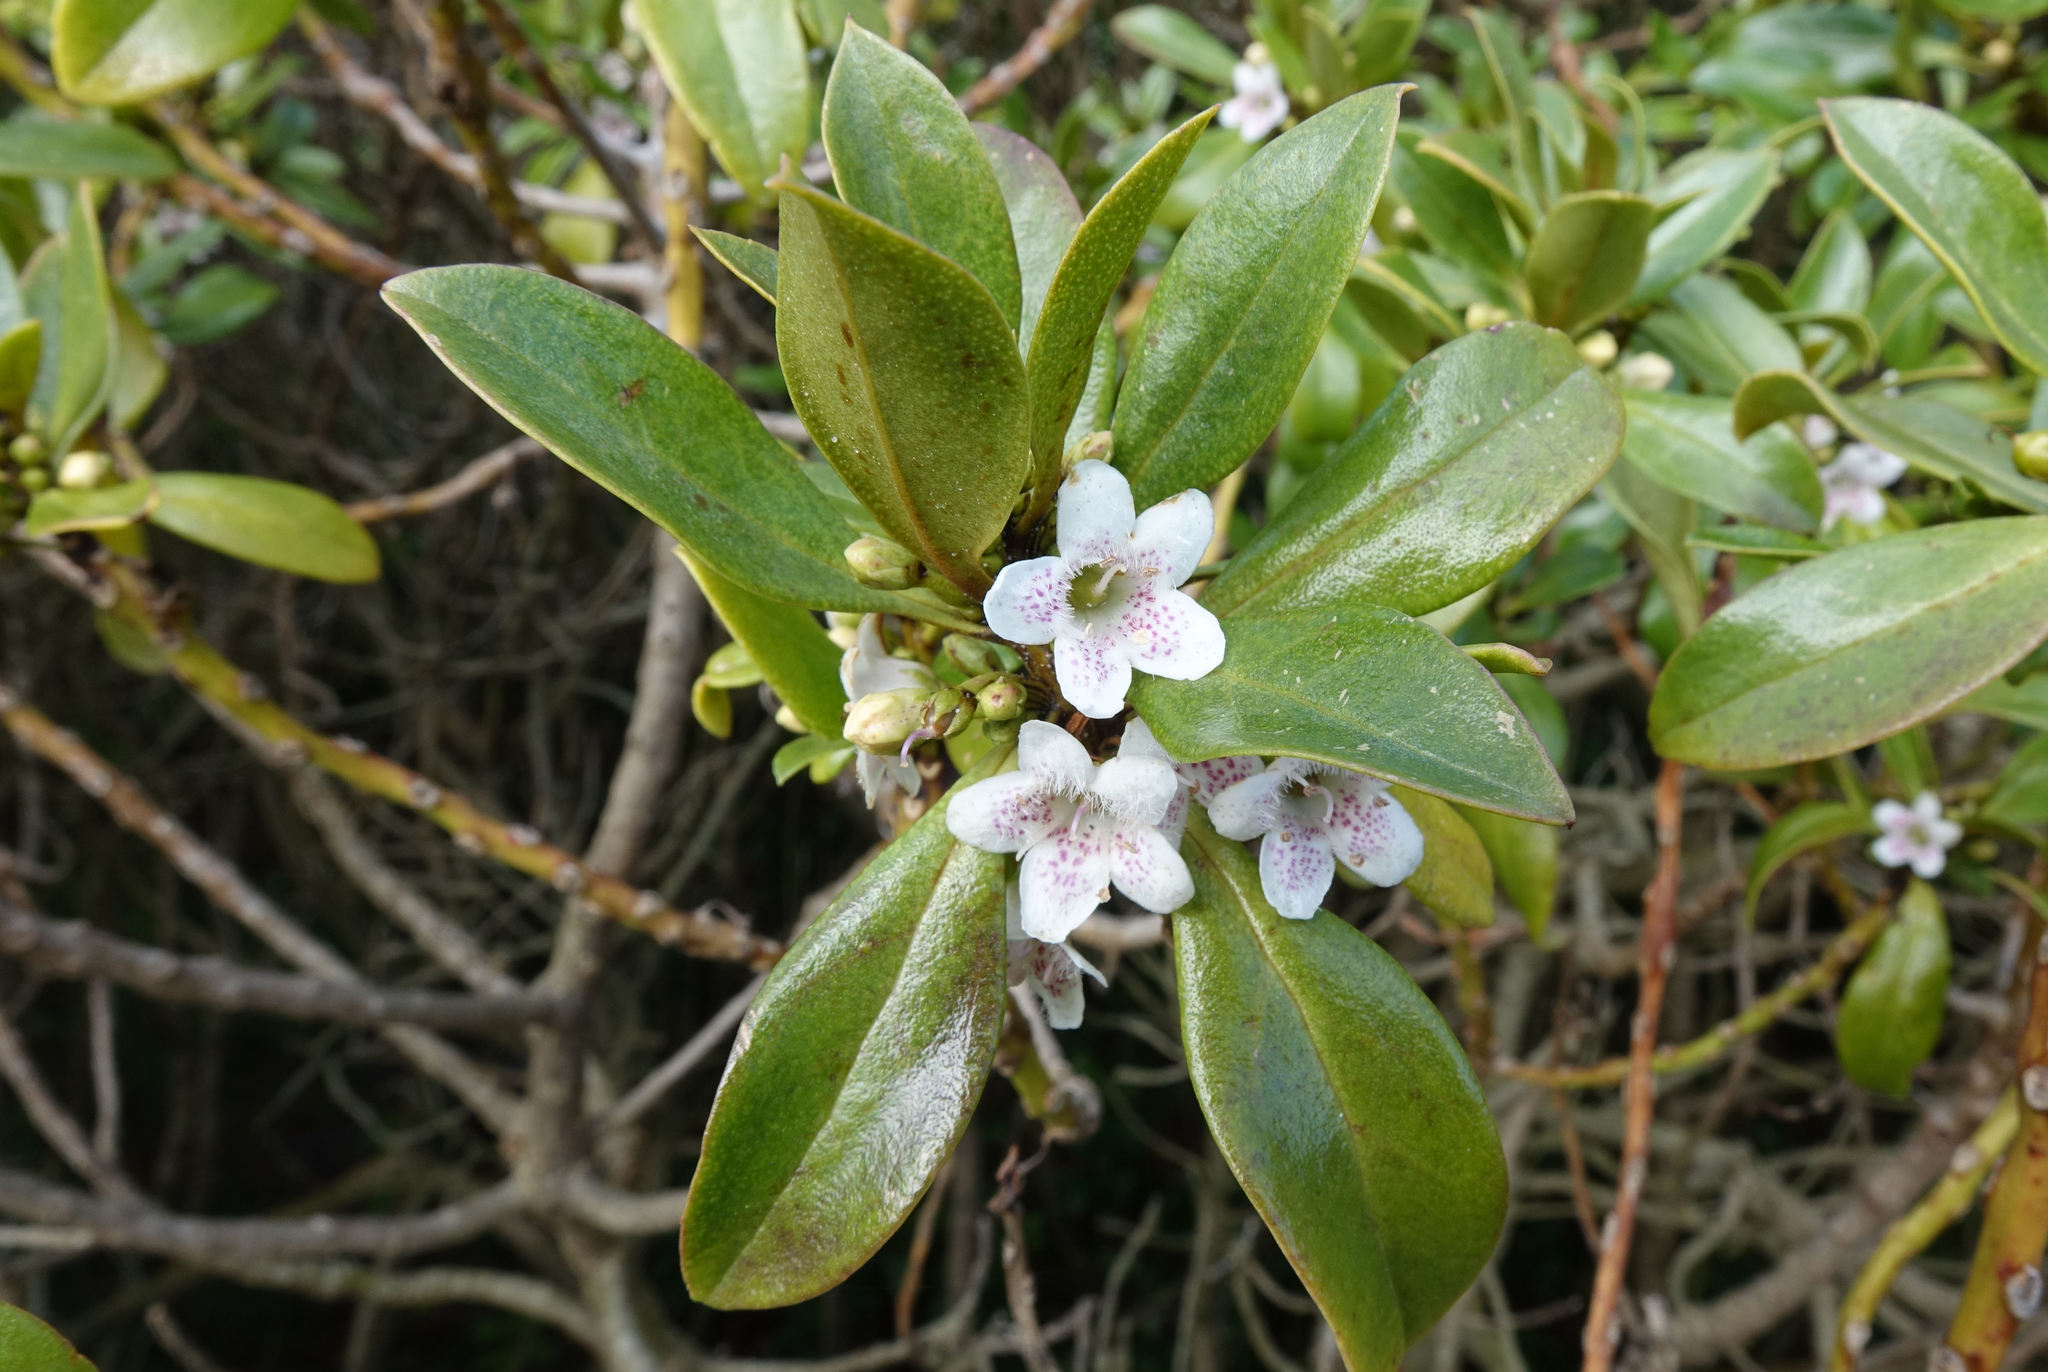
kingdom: Plantae
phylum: Tracheophyta
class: Magnoliopsida
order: Lamiales
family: Scrophulariaceae
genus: Myoporum
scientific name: Myoporum laetum
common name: Ngaio tree
